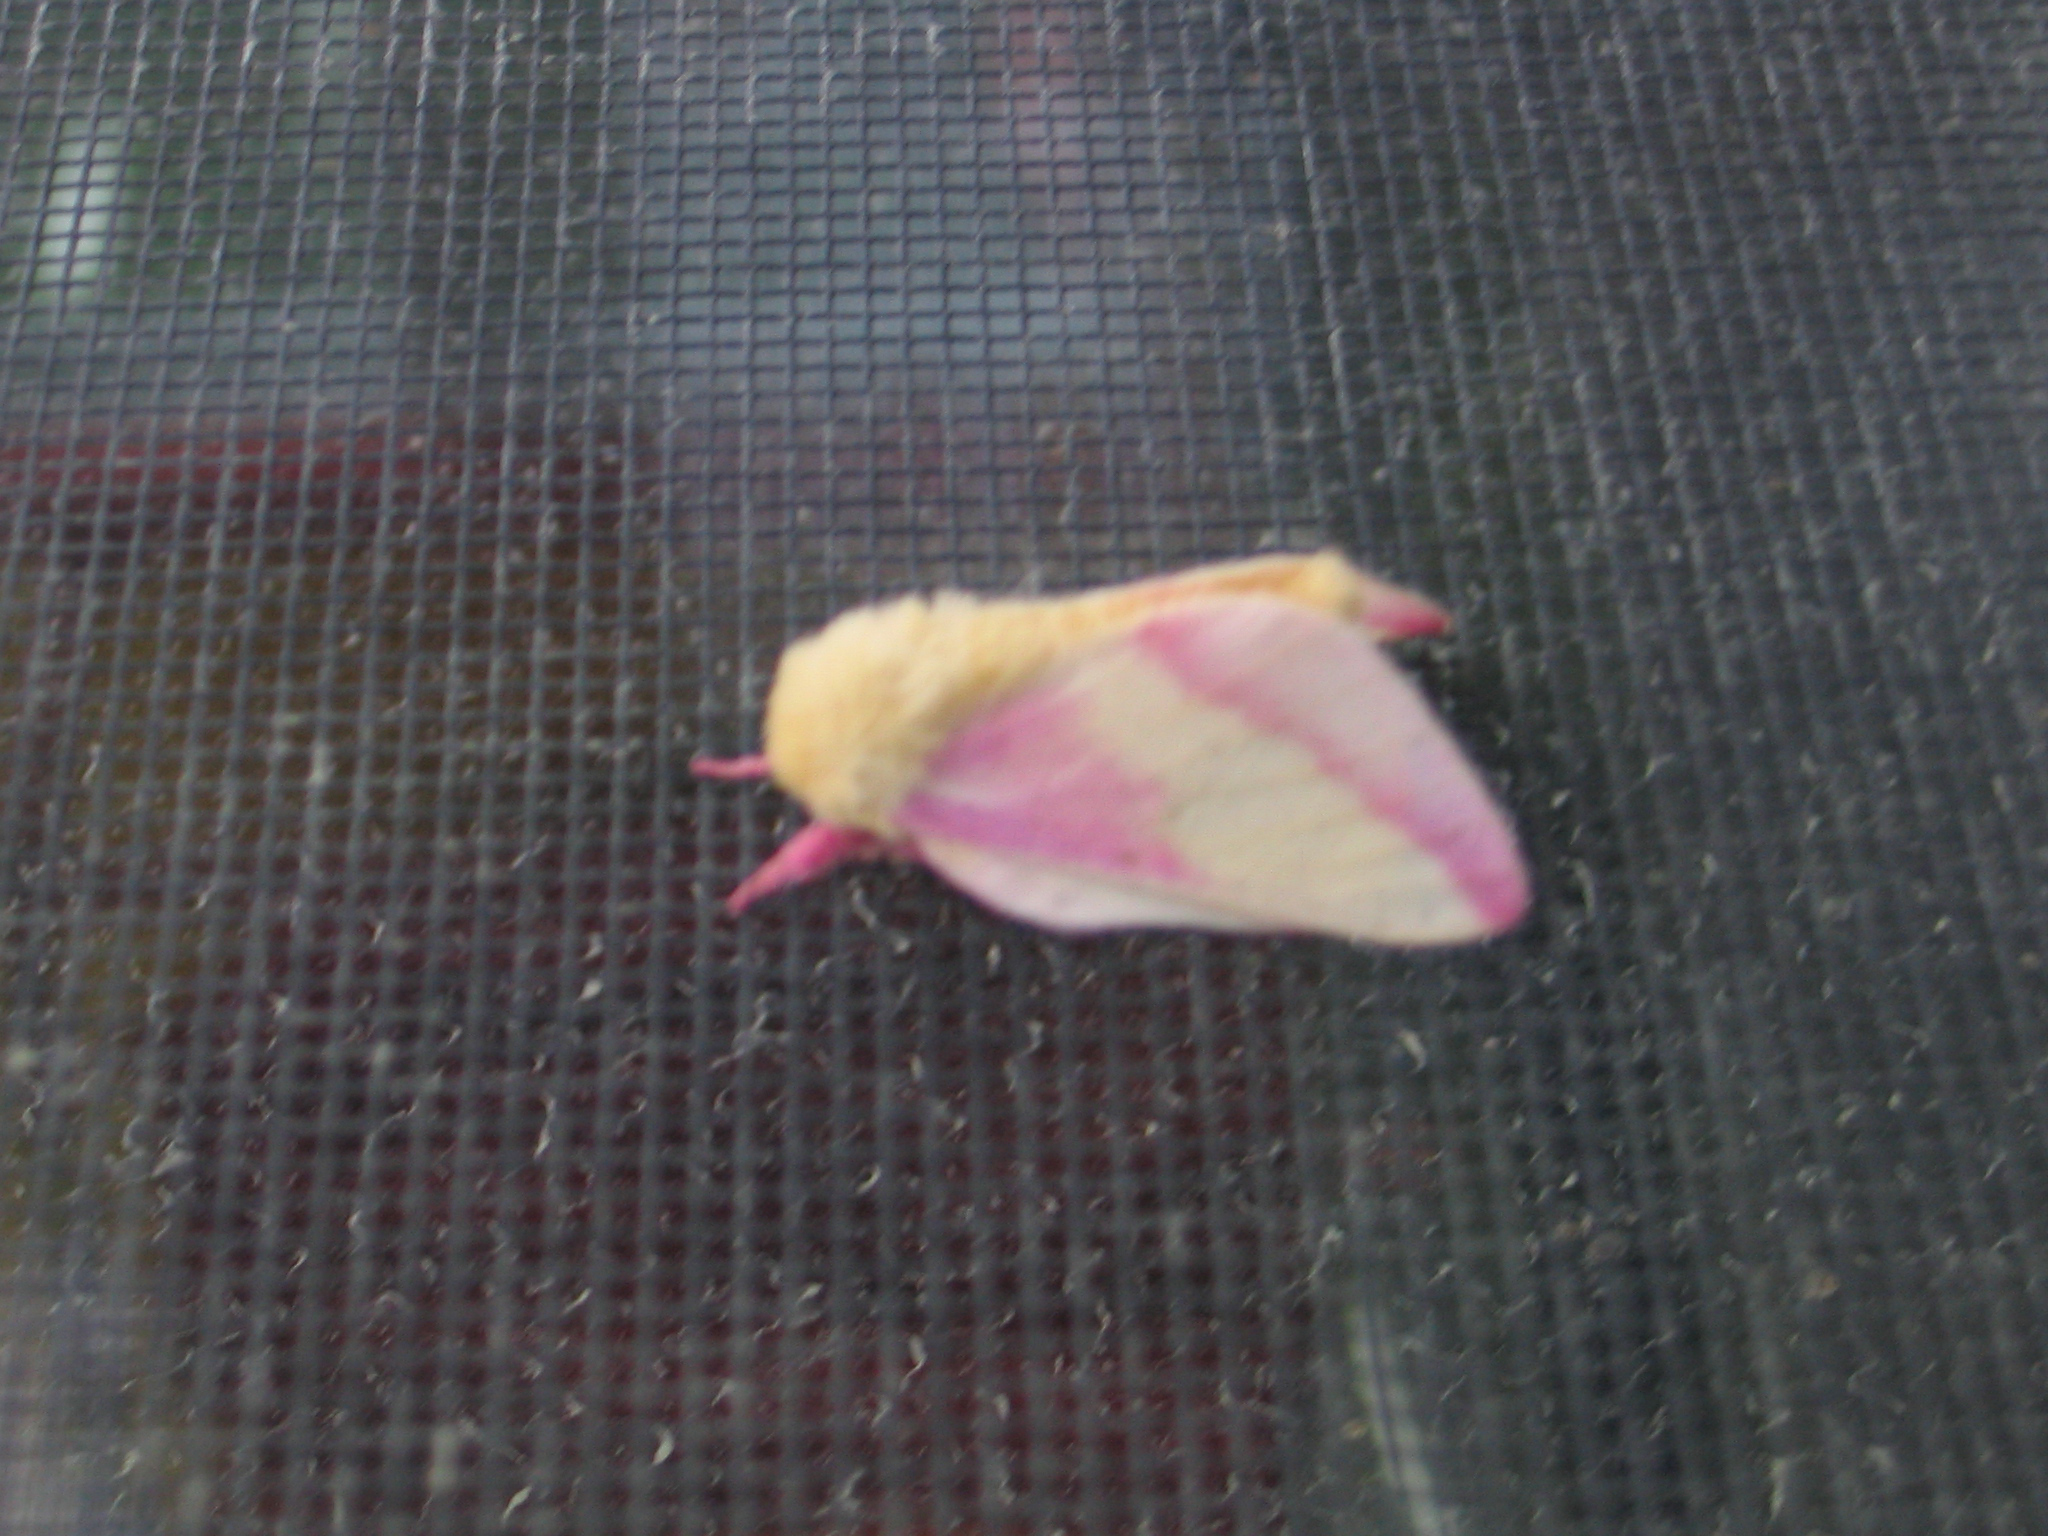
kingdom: Animalia
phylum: Arthropoda
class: Insecta
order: Lepidoptera
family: Saturniidae
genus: Dryocampa
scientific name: Dryocampa rubicunda
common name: Rosy maple moth
